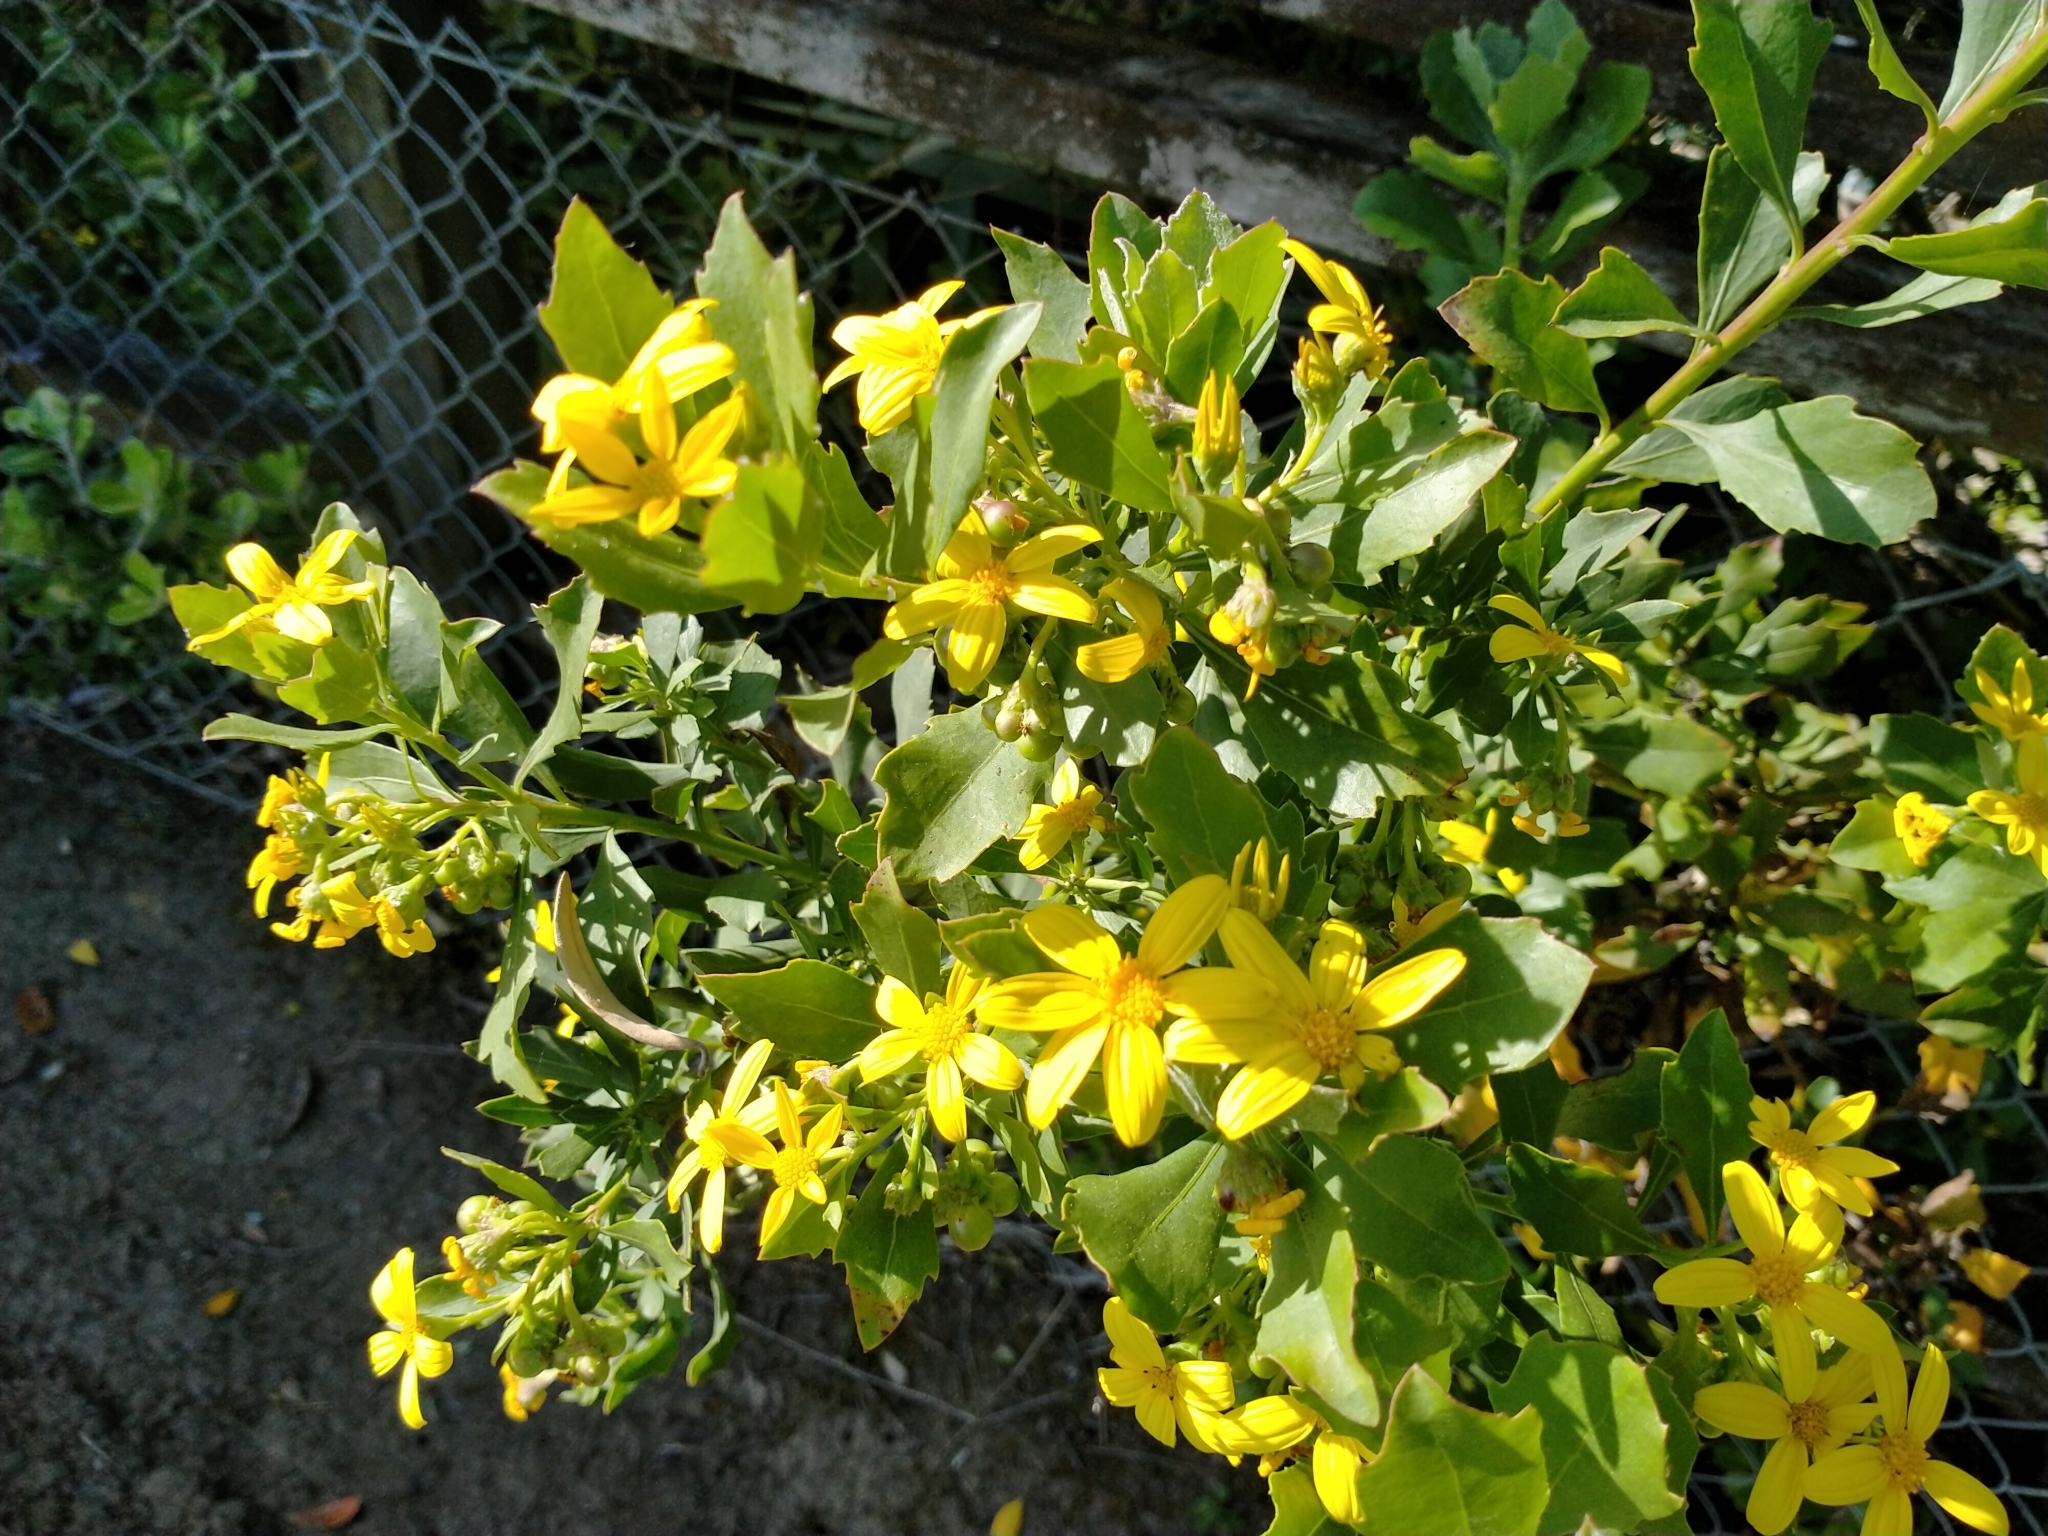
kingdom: Plantae
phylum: Tracheophyta
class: Magnoliopsida
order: Asterales
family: Asteraceae
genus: Osteospermum
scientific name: Osteospermum moniliferum
